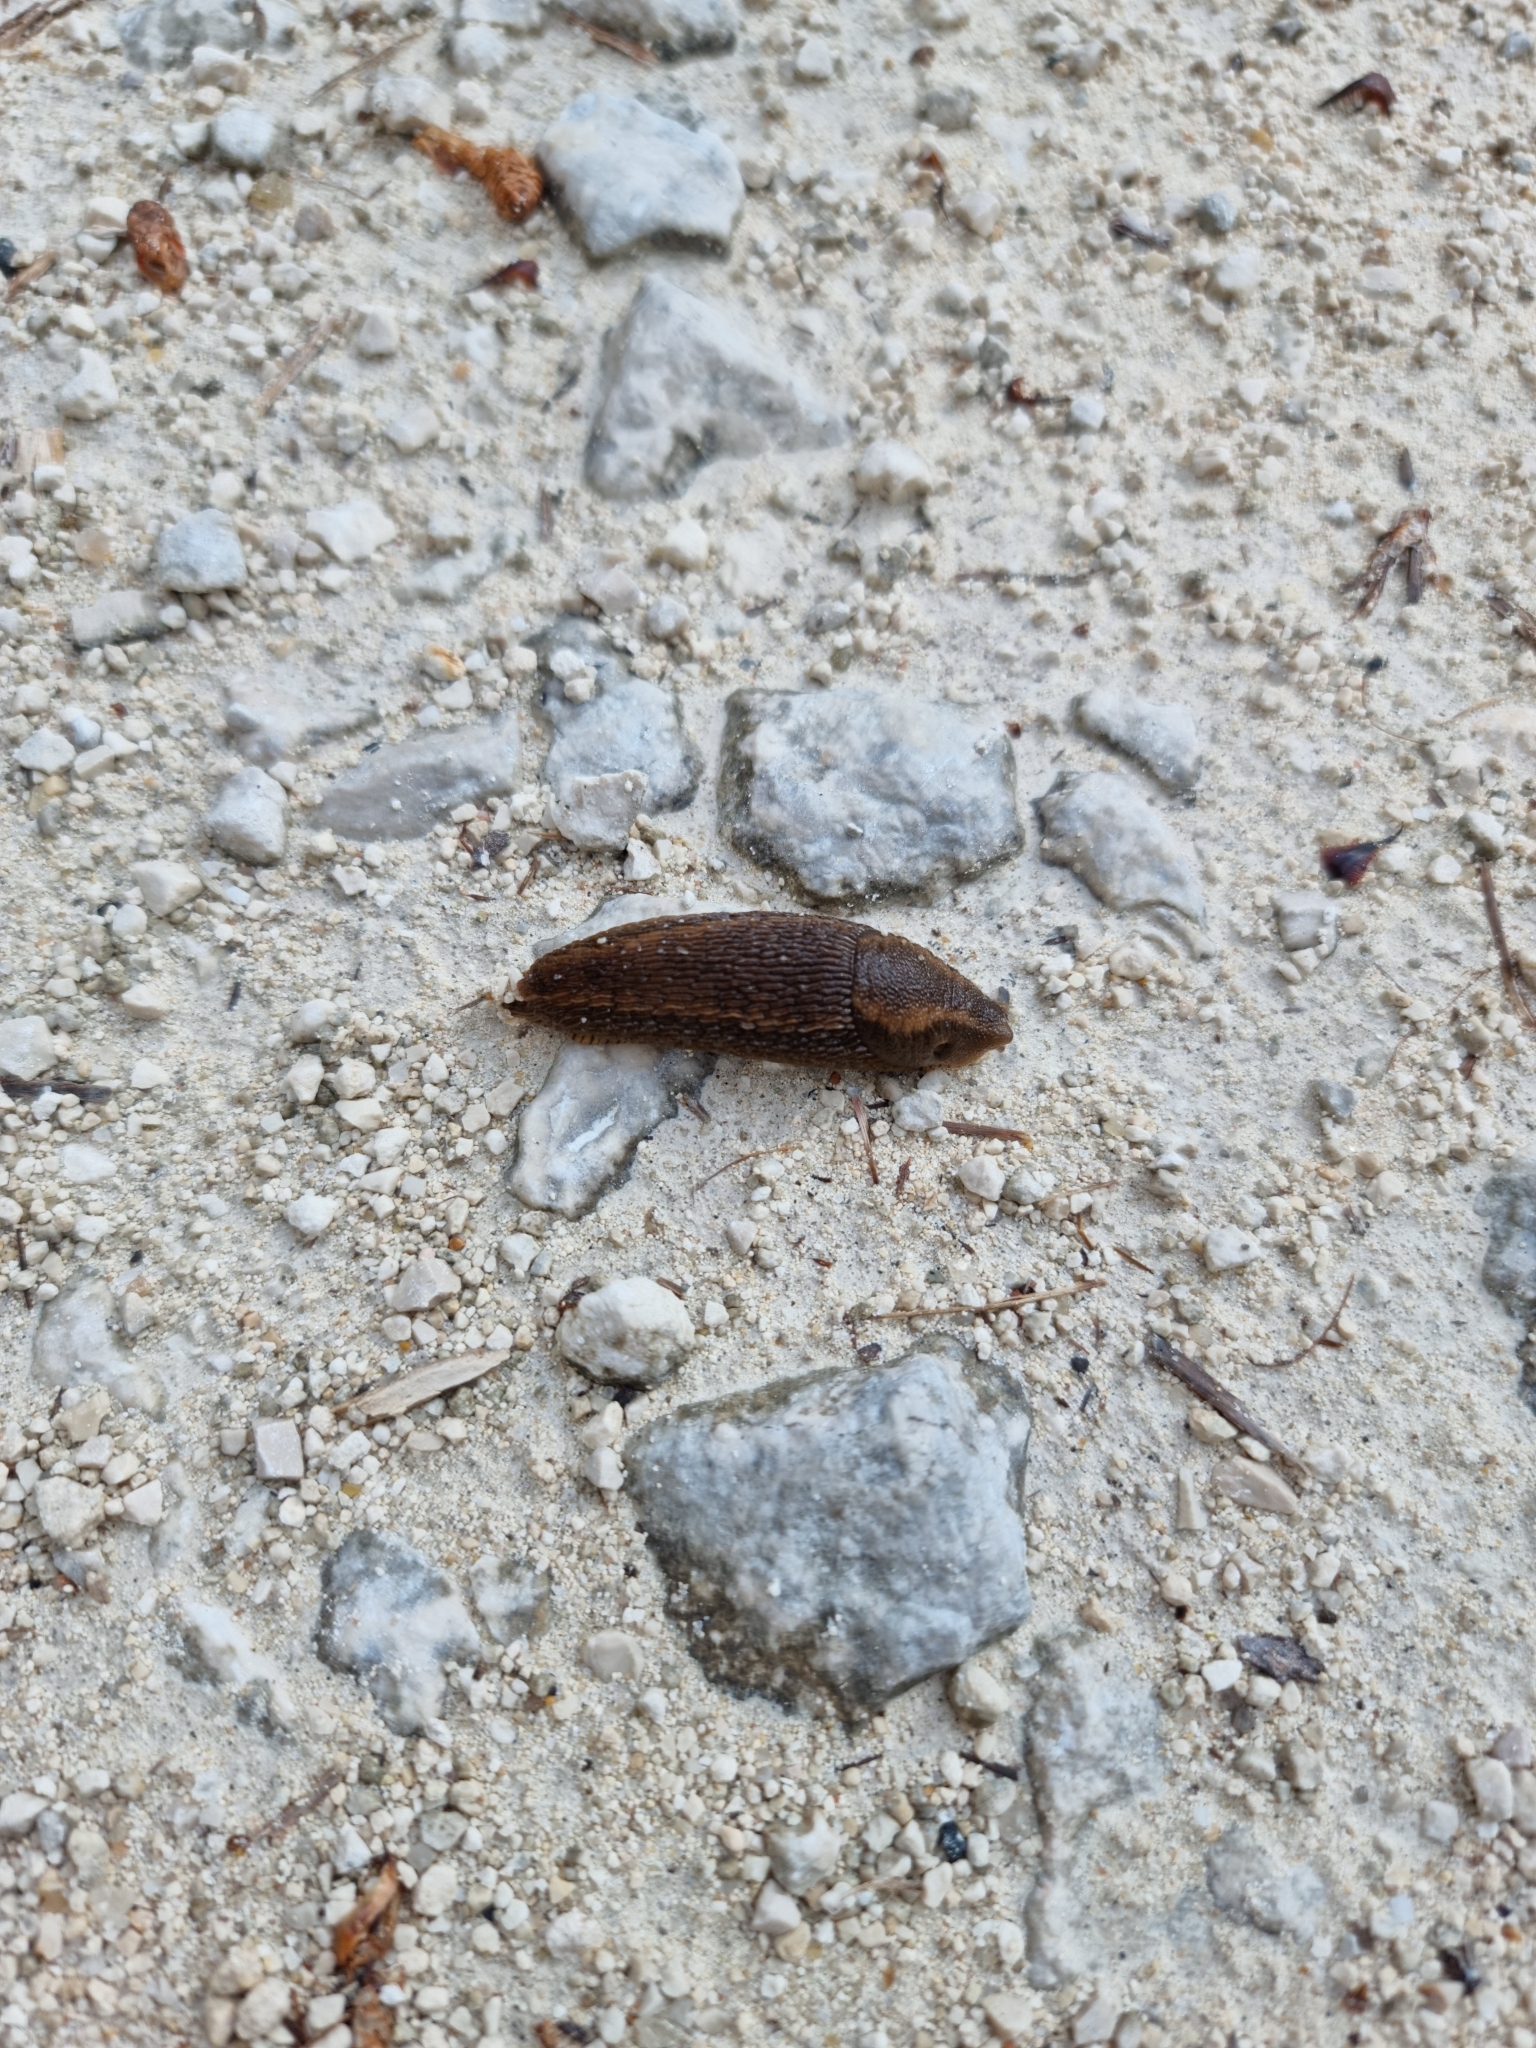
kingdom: Animalia
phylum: Mollusca
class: Gastropoda
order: Stylommatophora
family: Arionidae
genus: Arion
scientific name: Arion vulgaris
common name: Lusitanian slug
